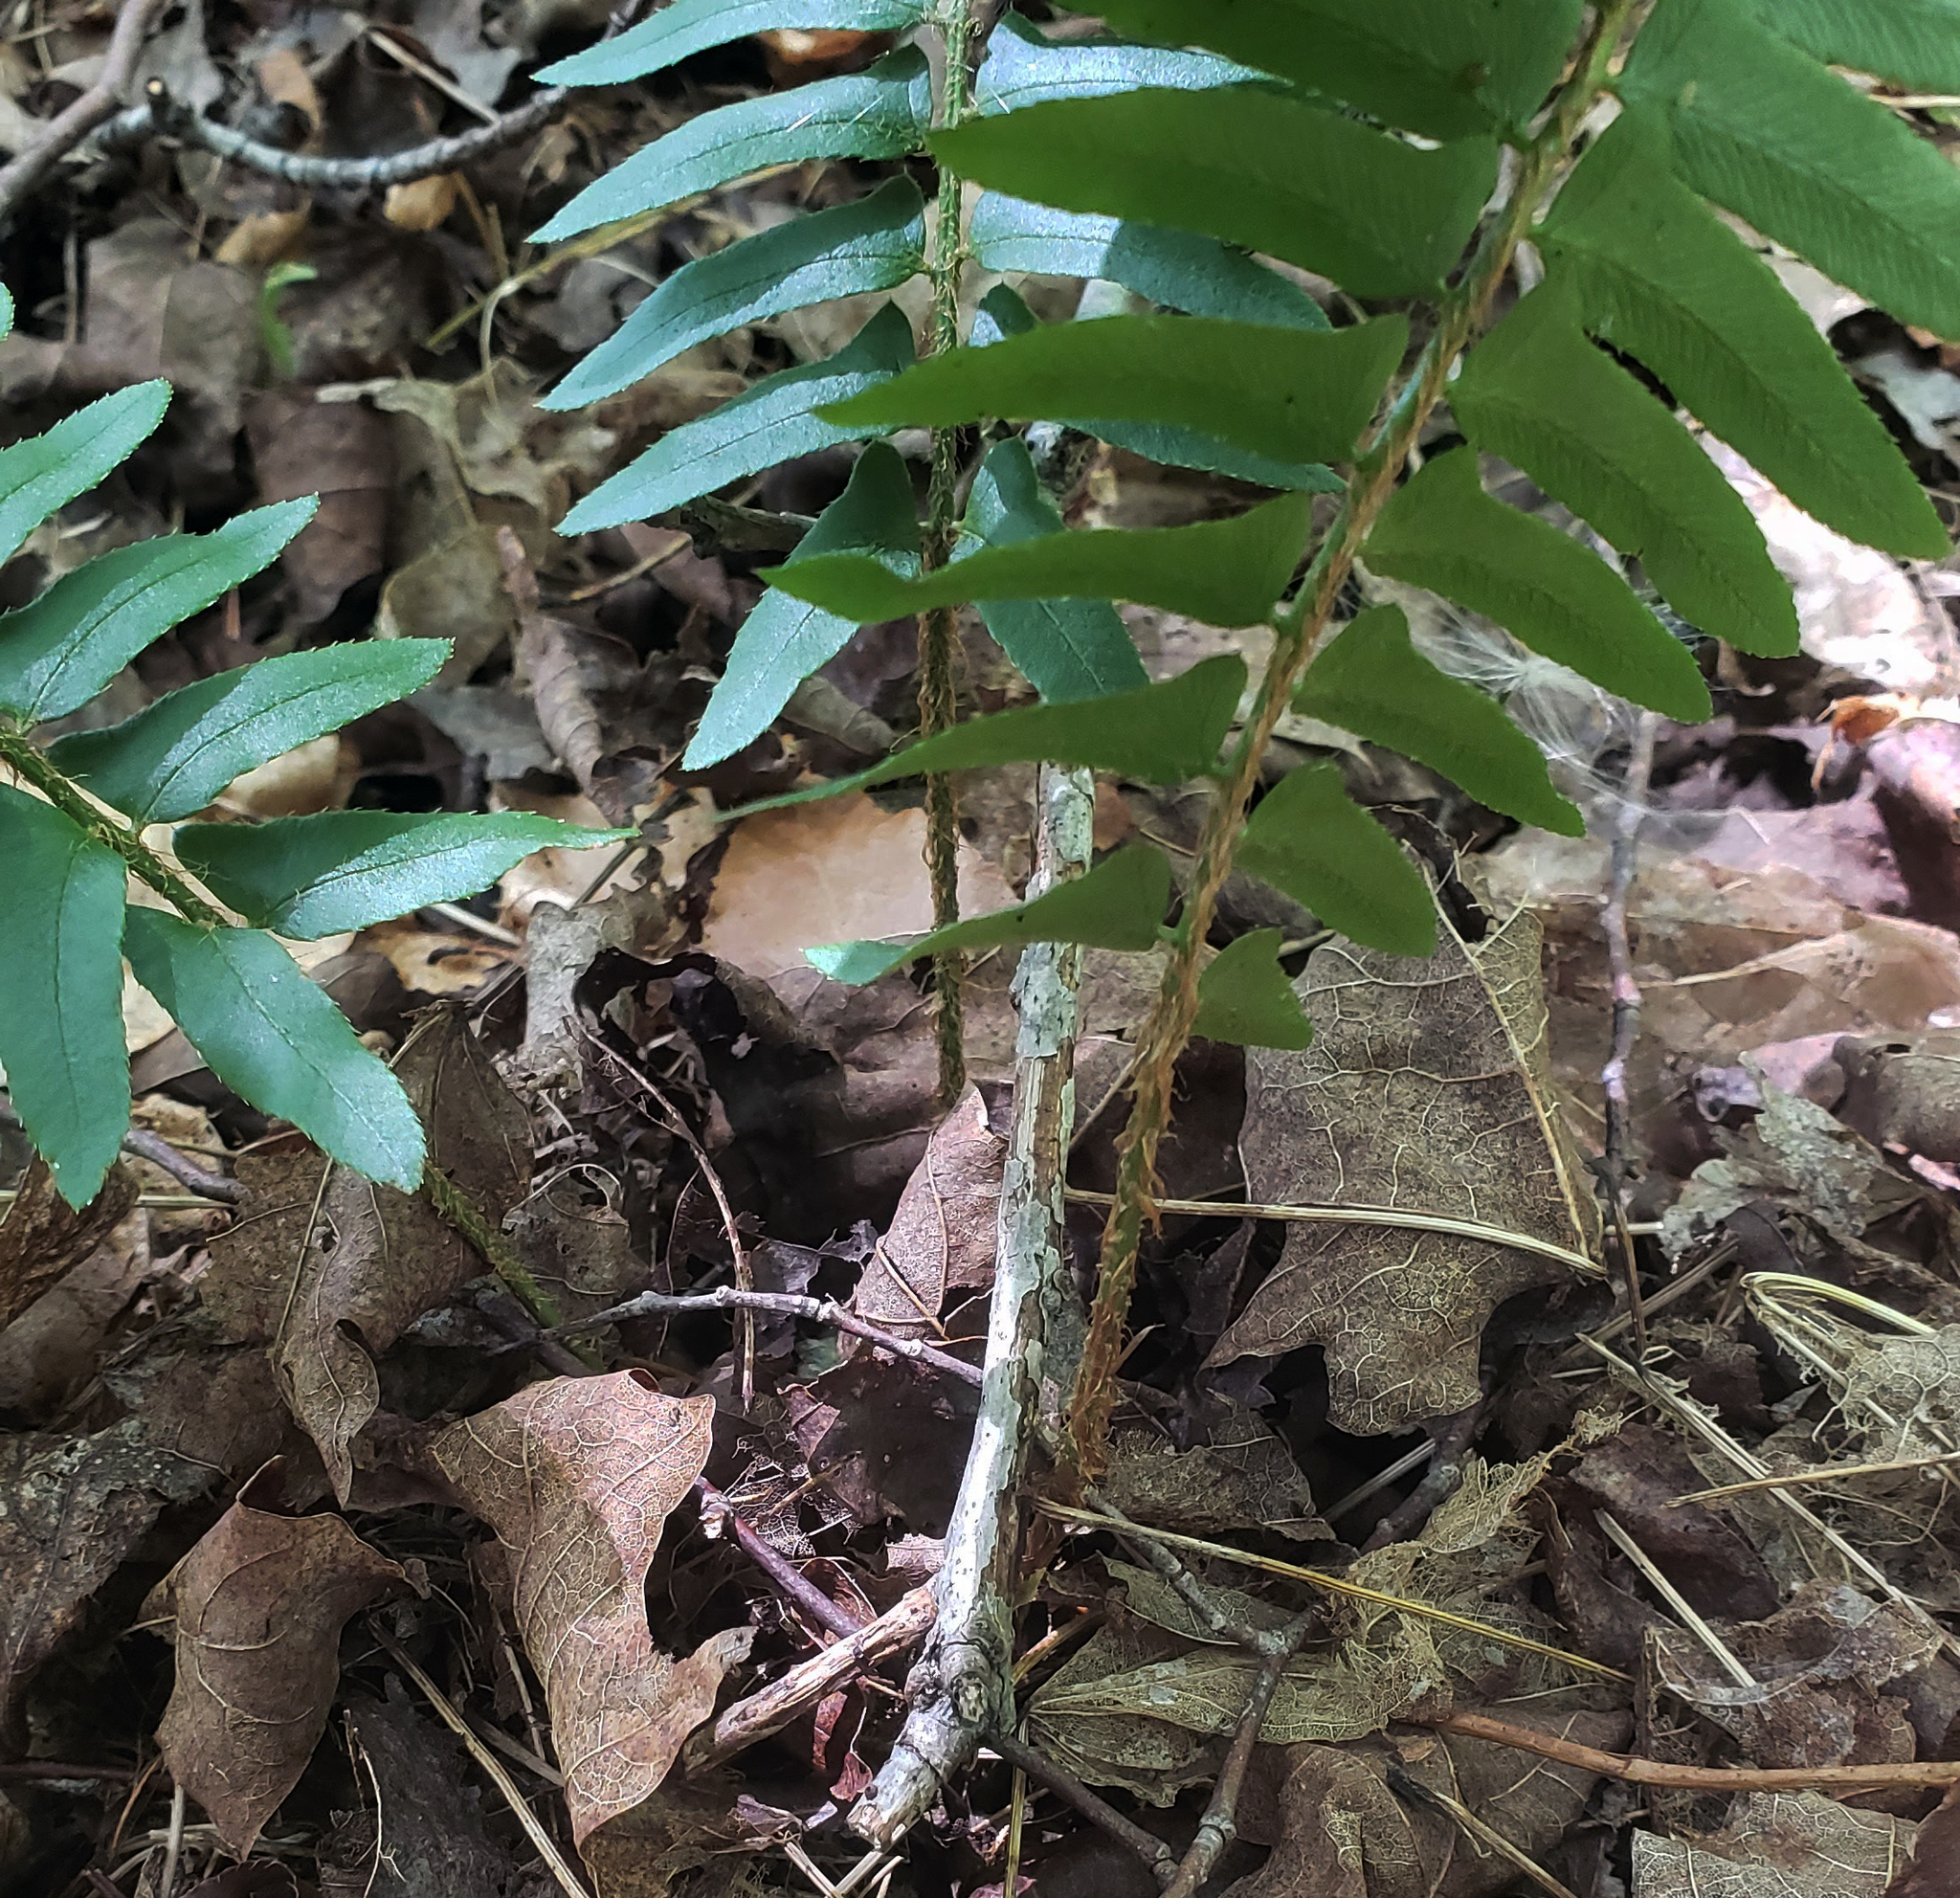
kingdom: Plantae
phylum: Tracheophyta
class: Polypodiopsida
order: Polypodiales
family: Dryopteridaceae
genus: Polystichum
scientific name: Polystichum acrostichoides
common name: Christmas fern
